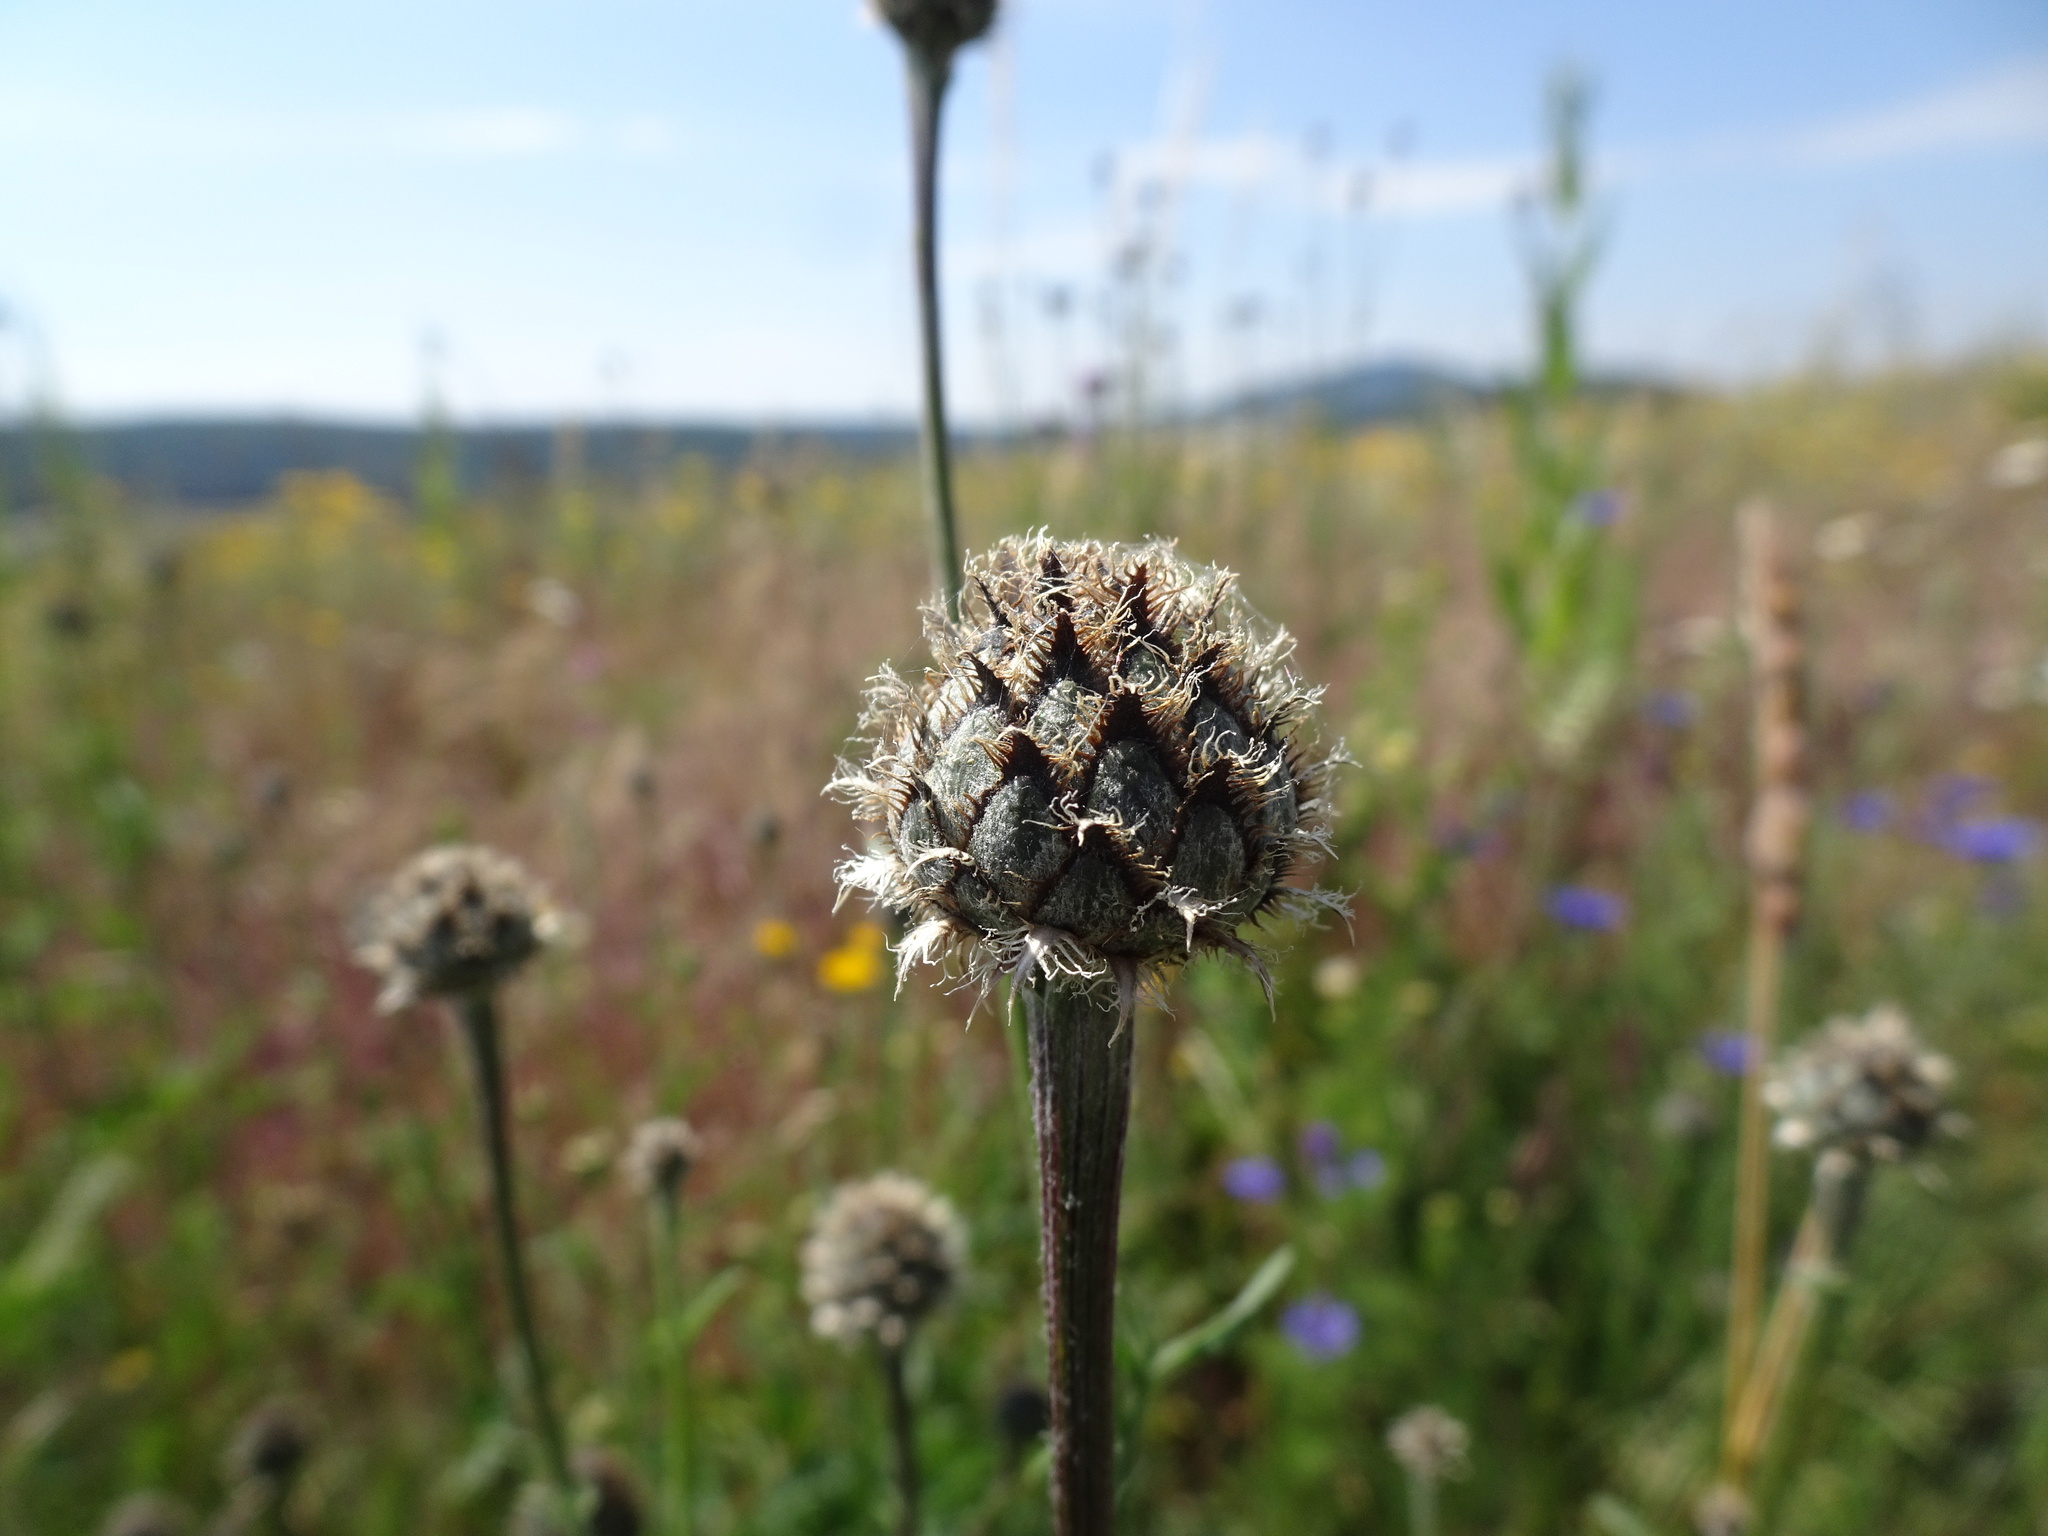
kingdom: Plantae
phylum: Tracheophyta
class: Magnoliopsida
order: Asterales
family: Asteraceae
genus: Centaurea
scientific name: Centaurea scabiosa
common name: Greater knapweed
